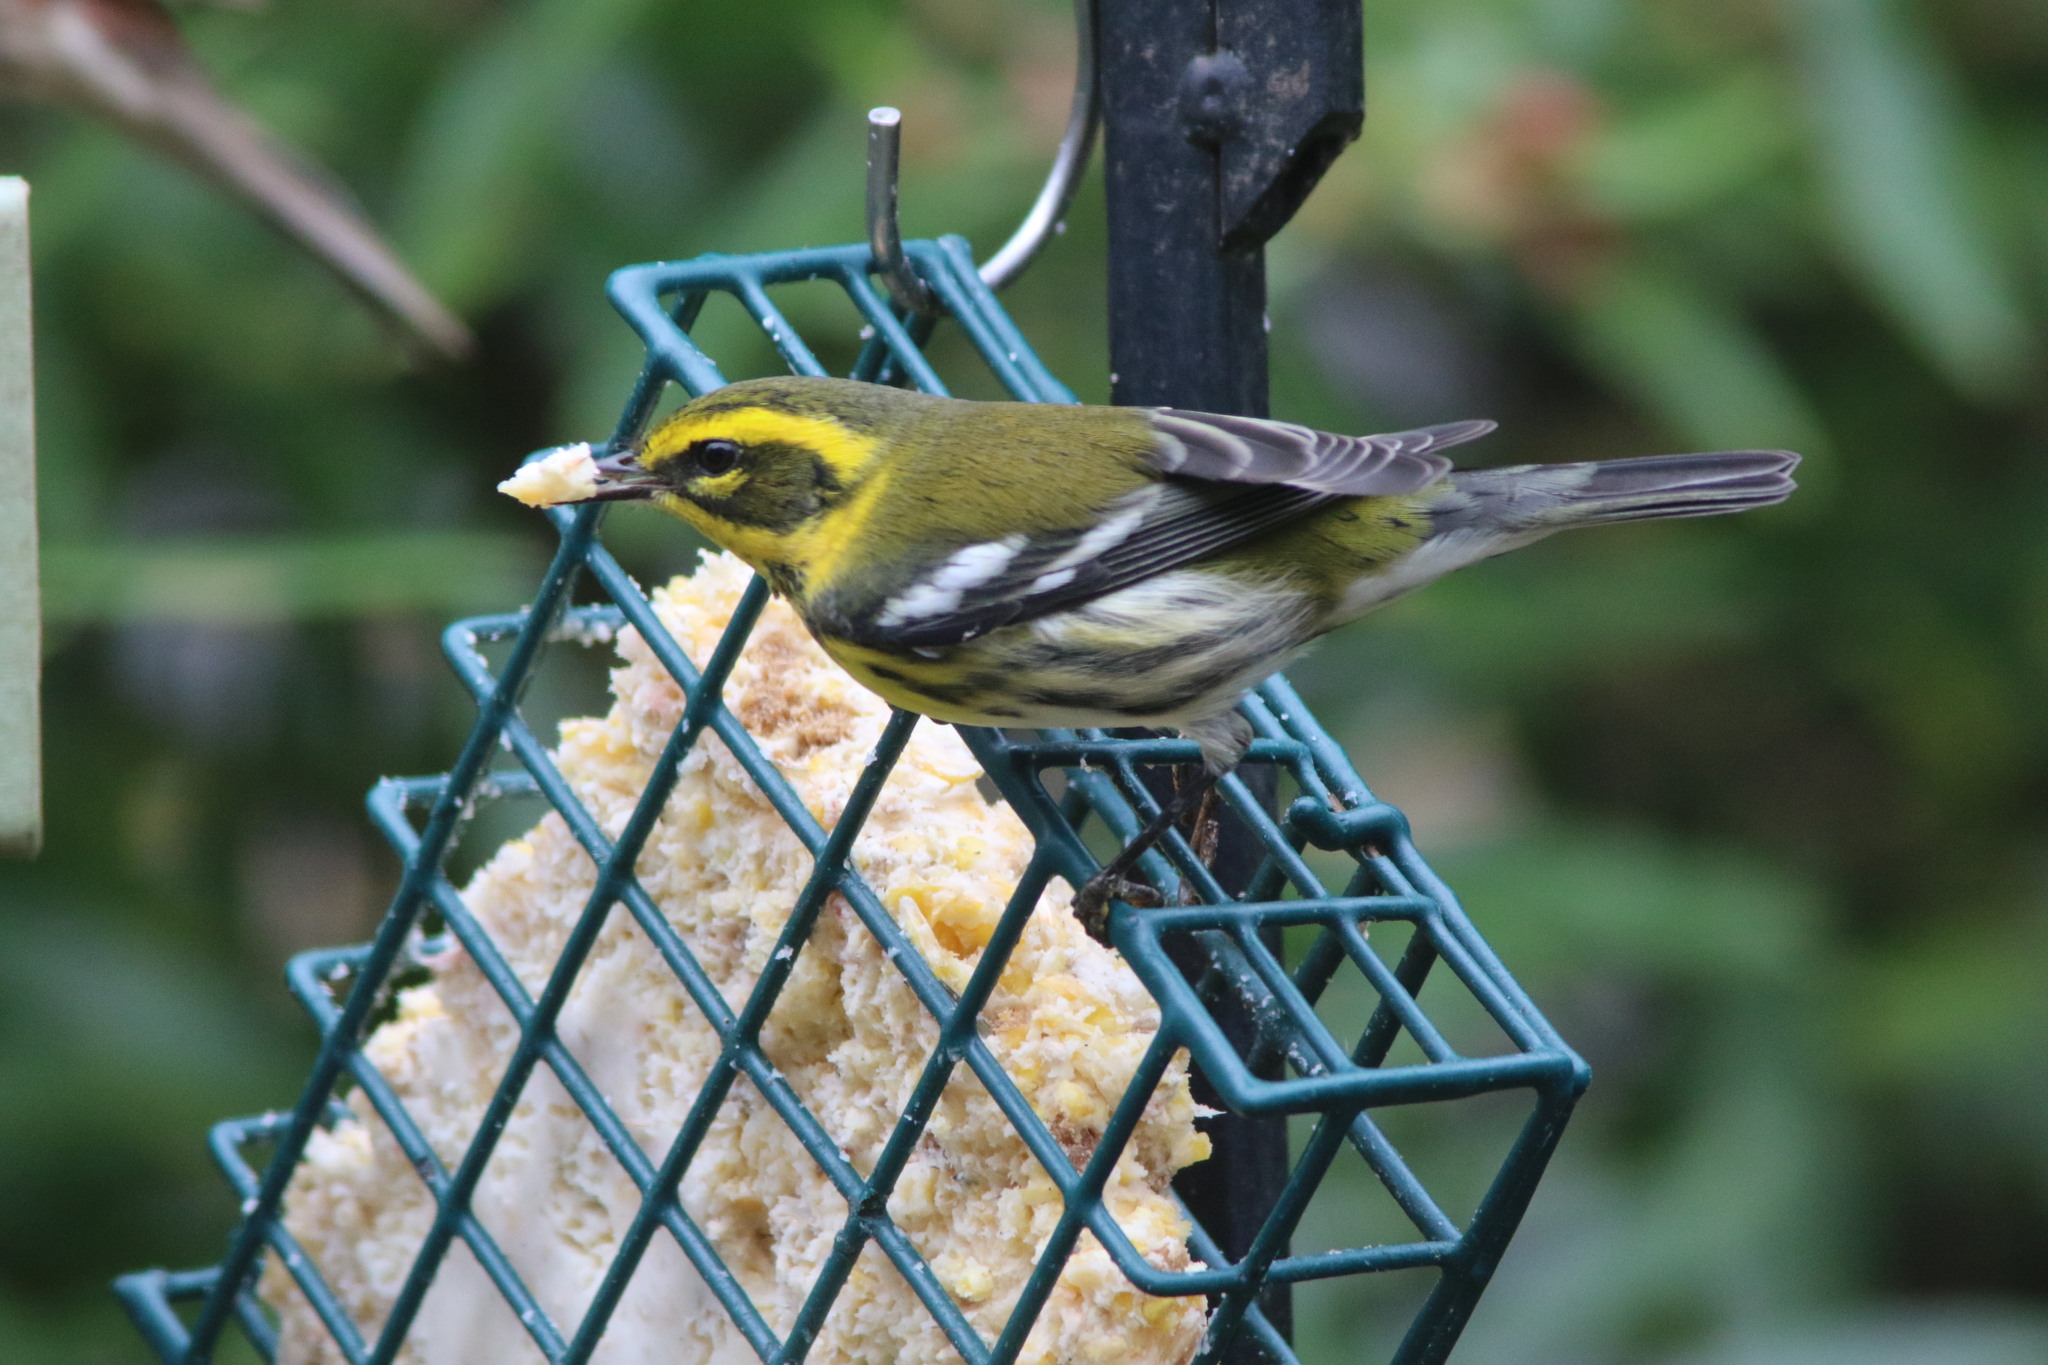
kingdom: Animalia
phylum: Chordata
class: Aves
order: Passeriformes
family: Parulidae
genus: Setophaga
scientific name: Setophaga townsendi
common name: Townsend's warbler
